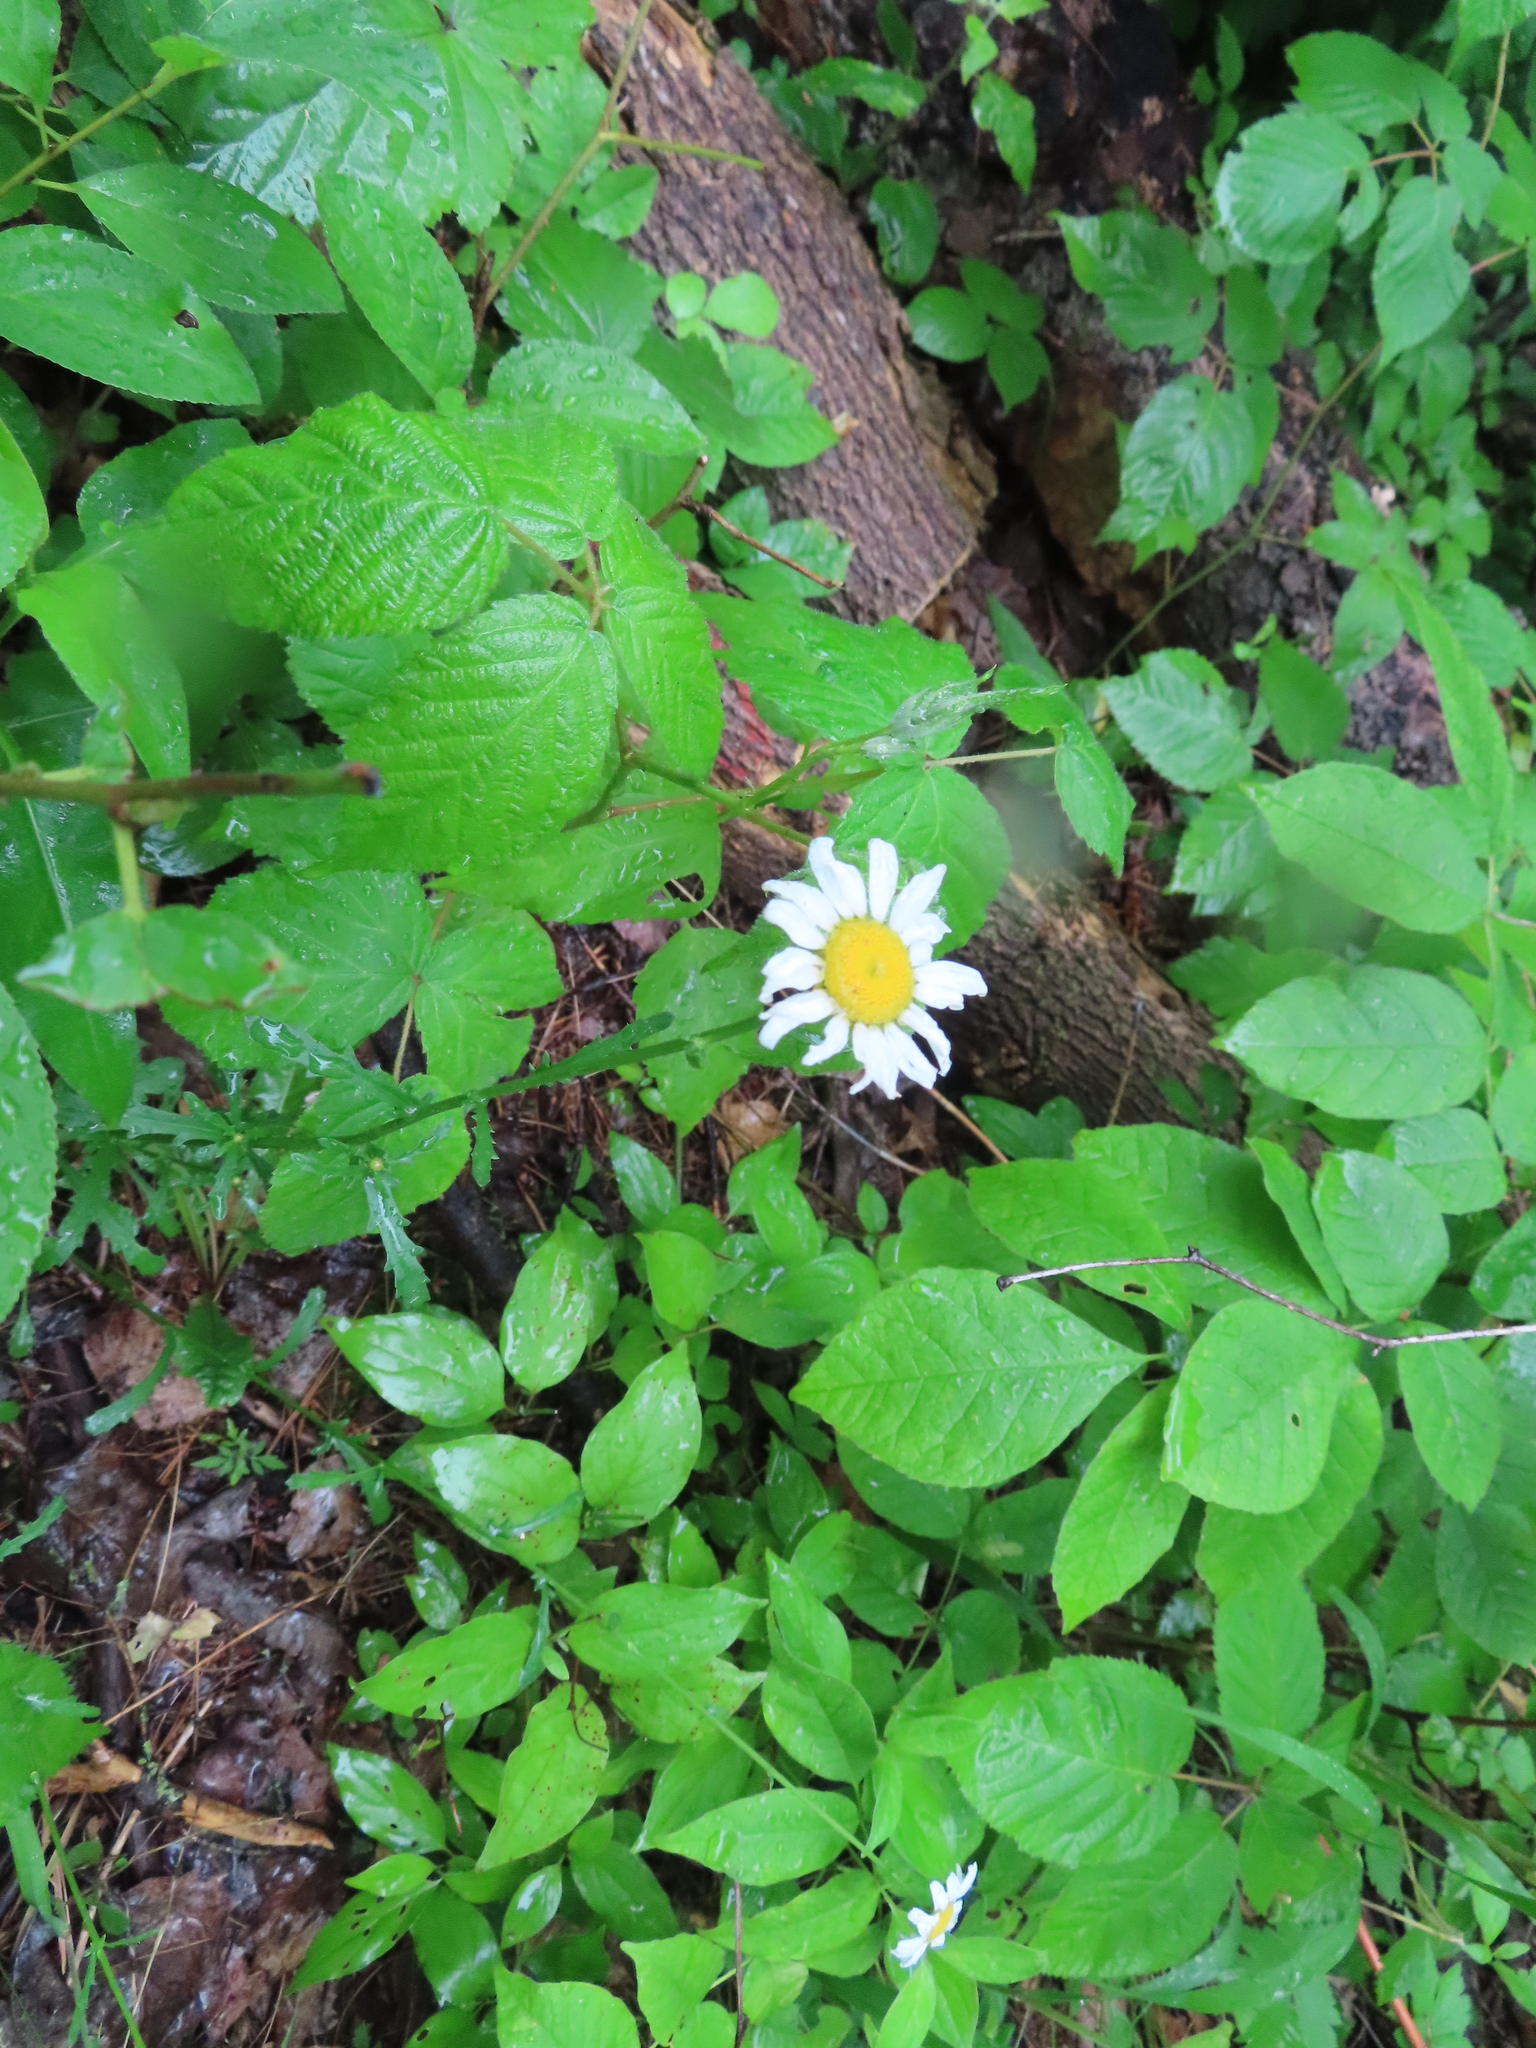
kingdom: Plantae
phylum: Tracheophyta
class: Magnoliopsida
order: Asterales
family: Asteraceae
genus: Leucanthemum
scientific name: Leucanthemum vulgare
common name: Oxeye daisy
